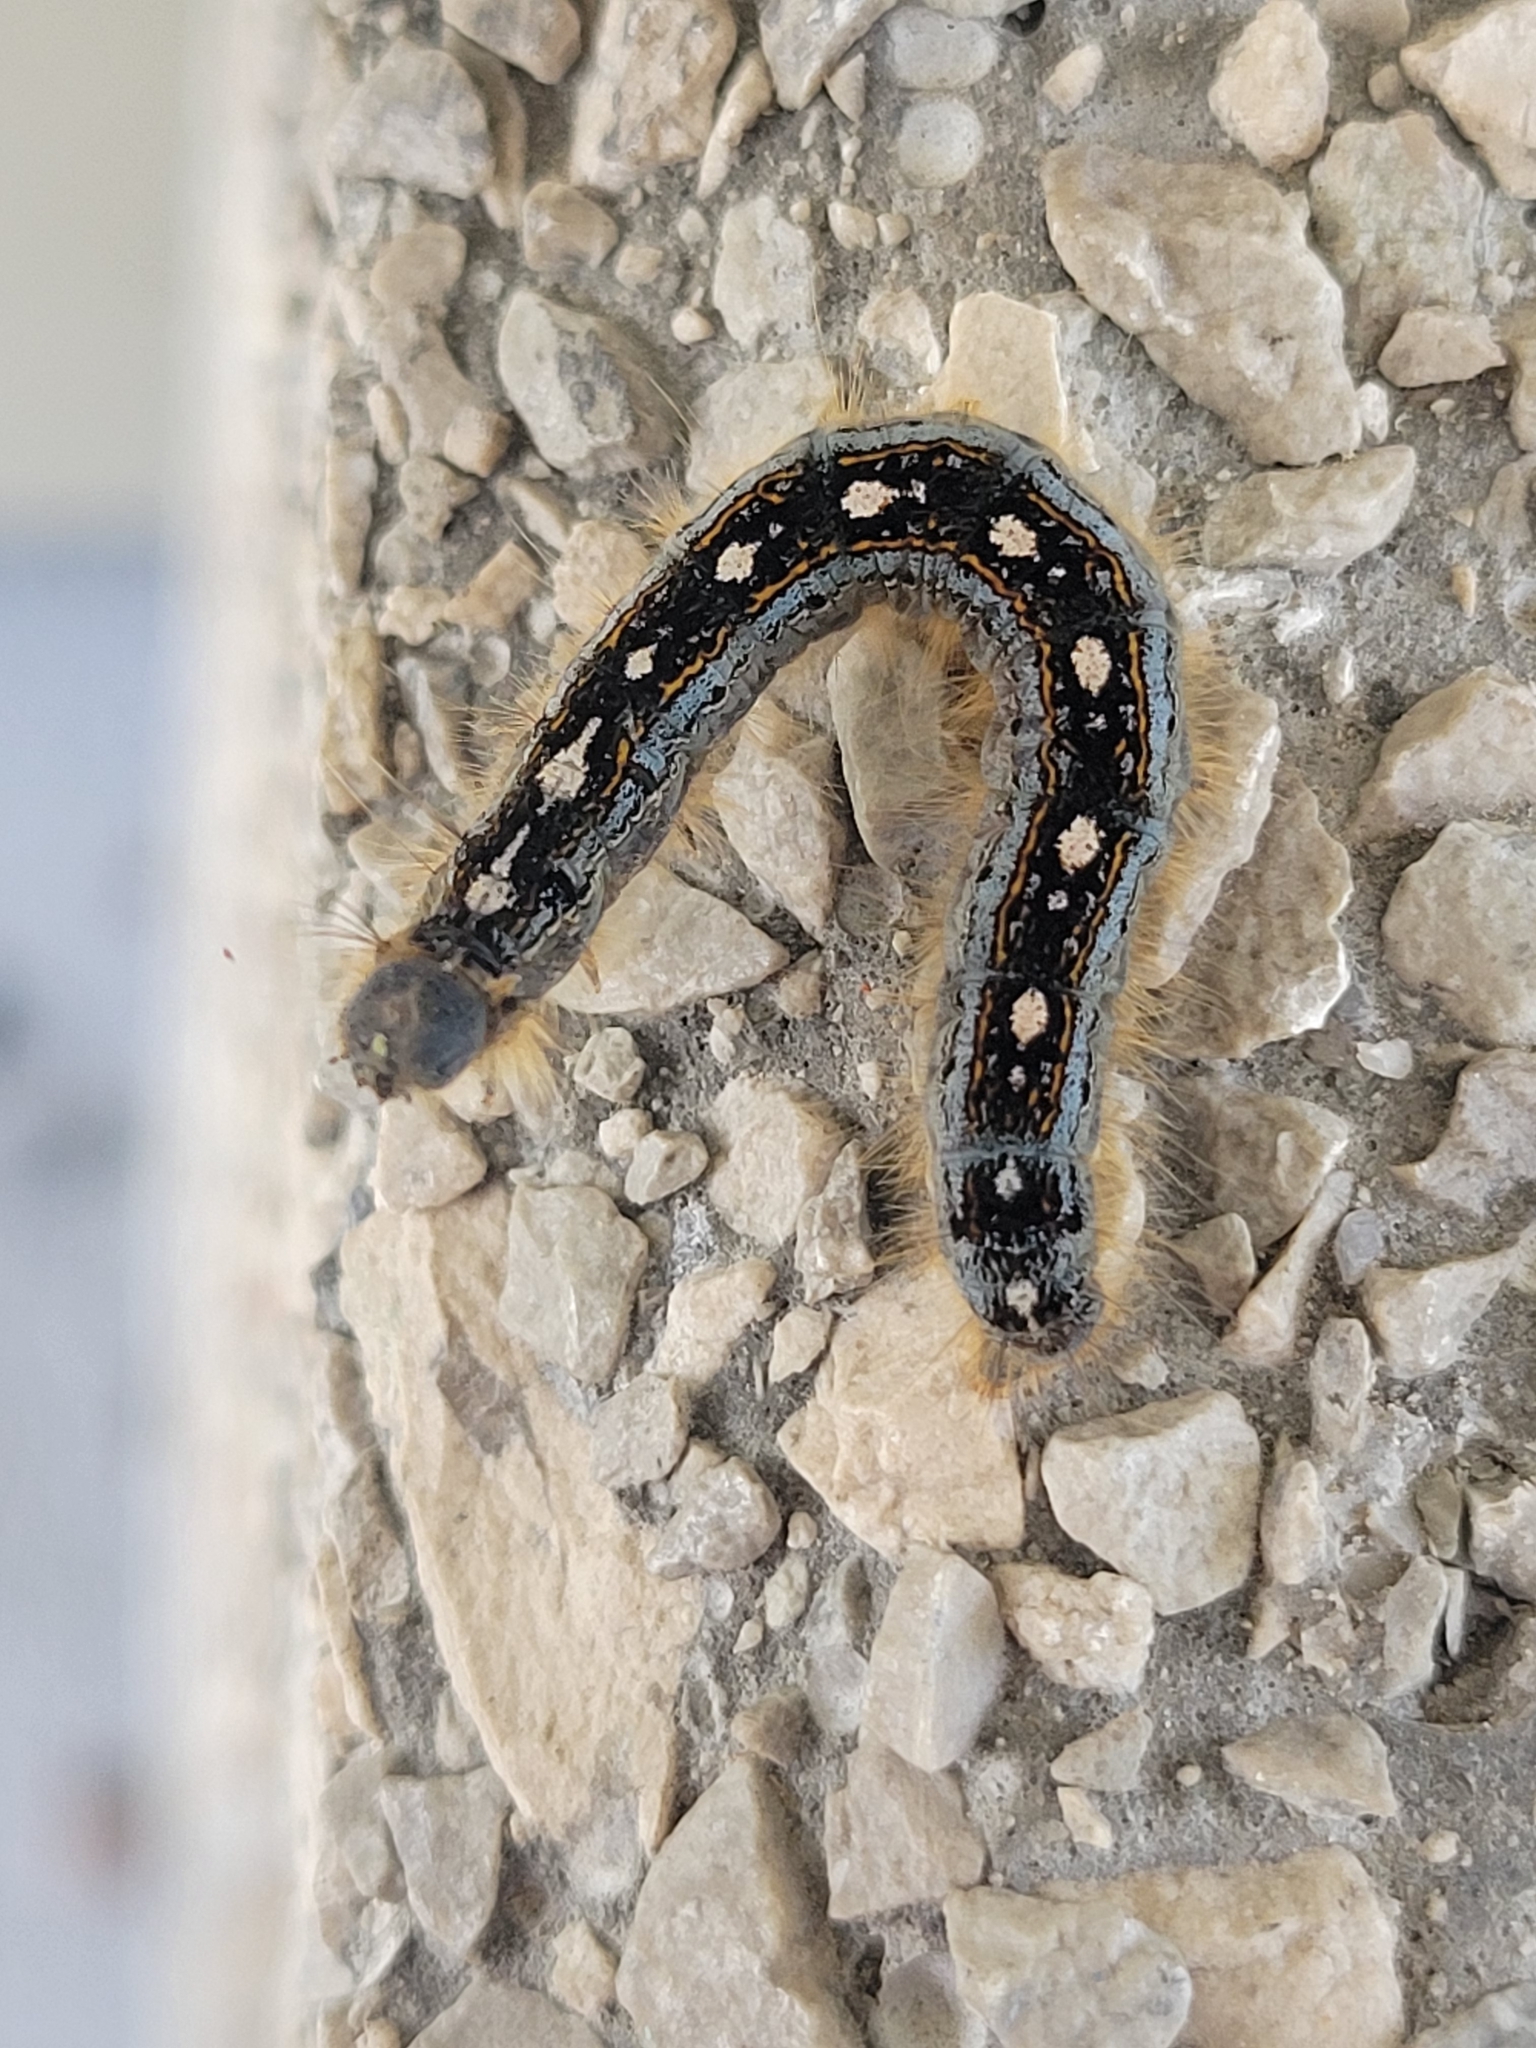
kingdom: Animalia
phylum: Arthropoda
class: Insecta
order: Lepidoptera
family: Lasiocampidae
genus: Malacosoma
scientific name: Malacosoma disstria
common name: Forest tent caterpillar
